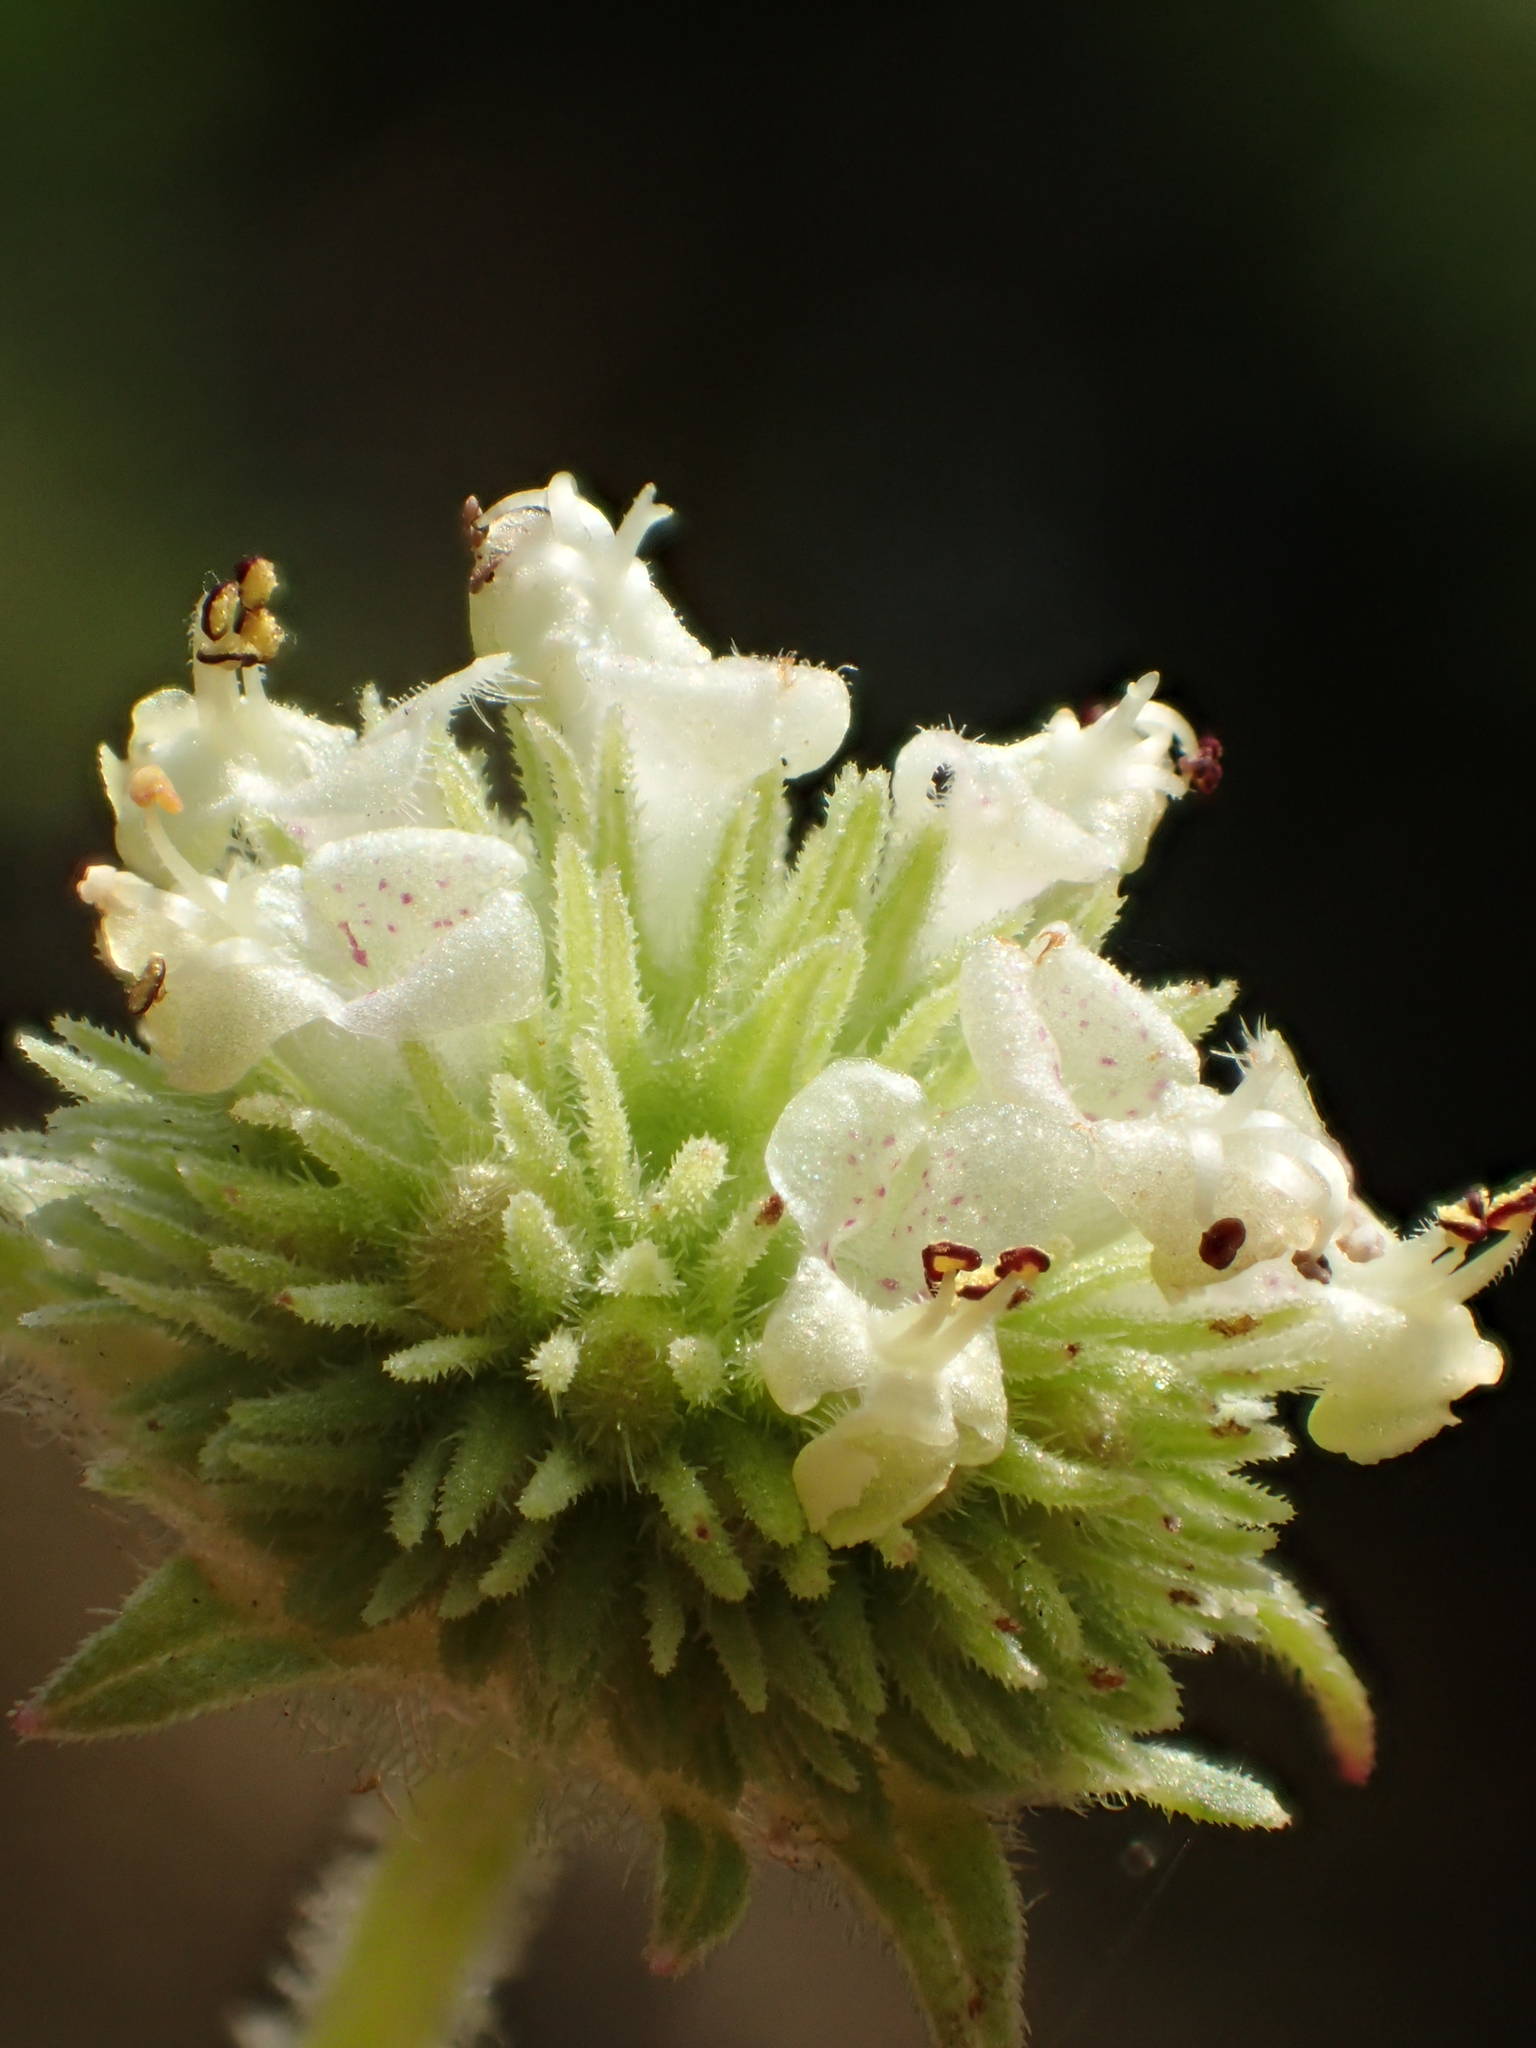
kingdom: Plantae
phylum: Tracheophyta
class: Magnoliopsida
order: Lamiales
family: Lamiaceae
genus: Hyptis
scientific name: Hyptis capitata
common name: False ironwort
